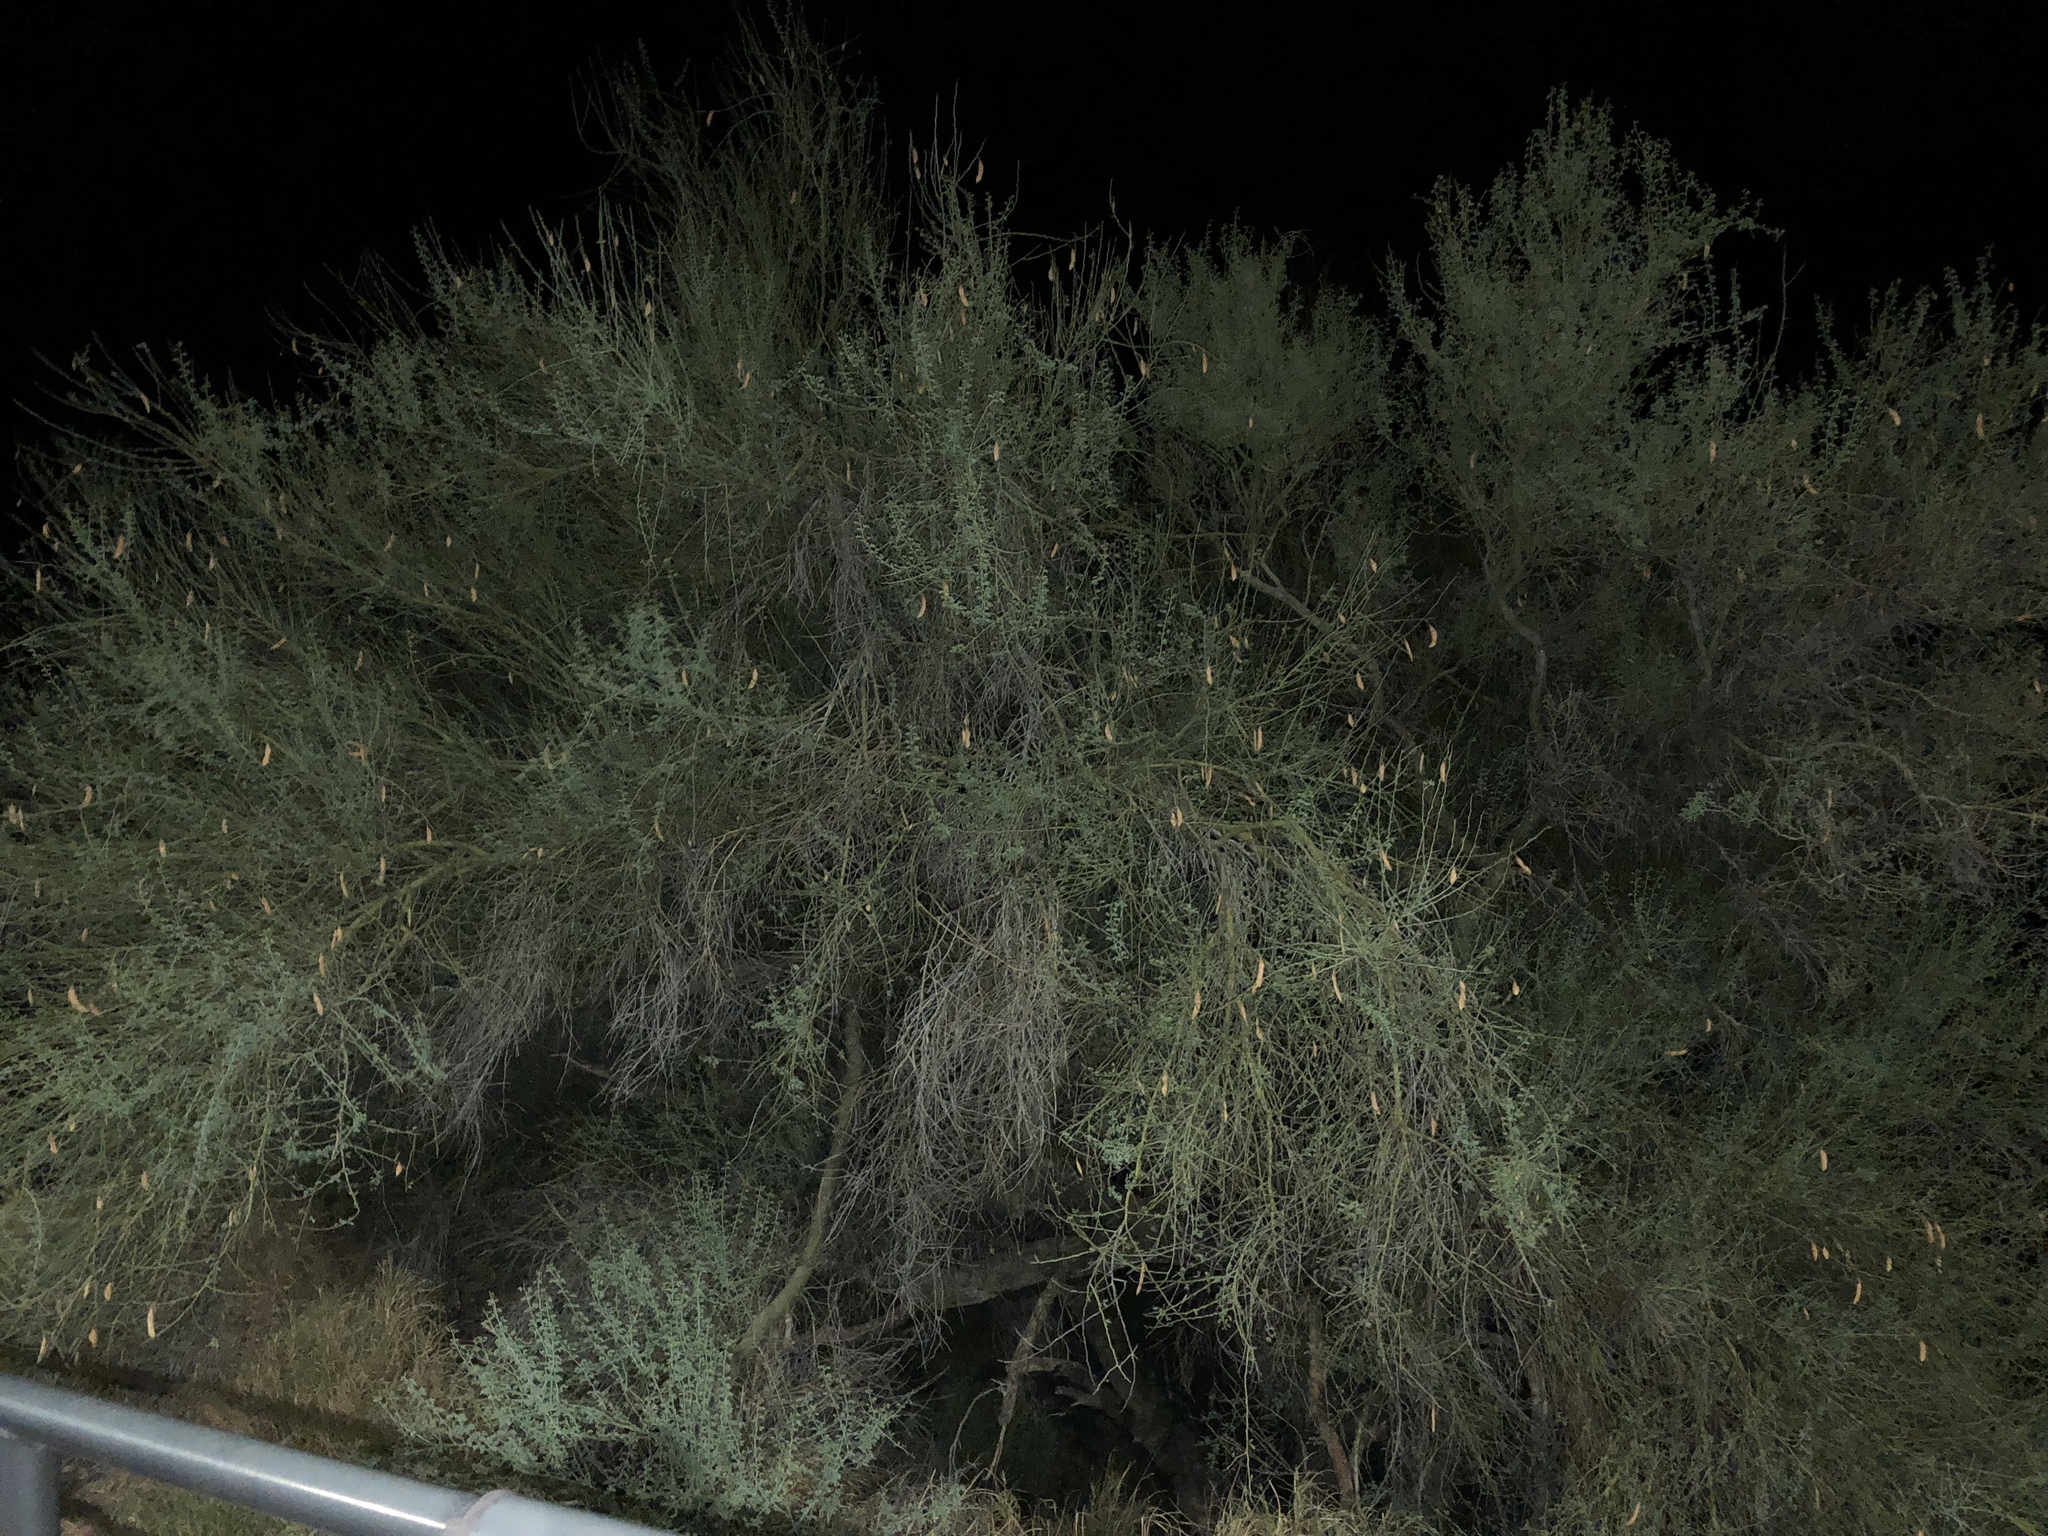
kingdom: Plantae
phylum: Tracheophyta
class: Magnoliopsida
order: Fabales
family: Fabaceae
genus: Parkinsonia
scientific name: Parkinsonia florida
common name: Blue paloverde
